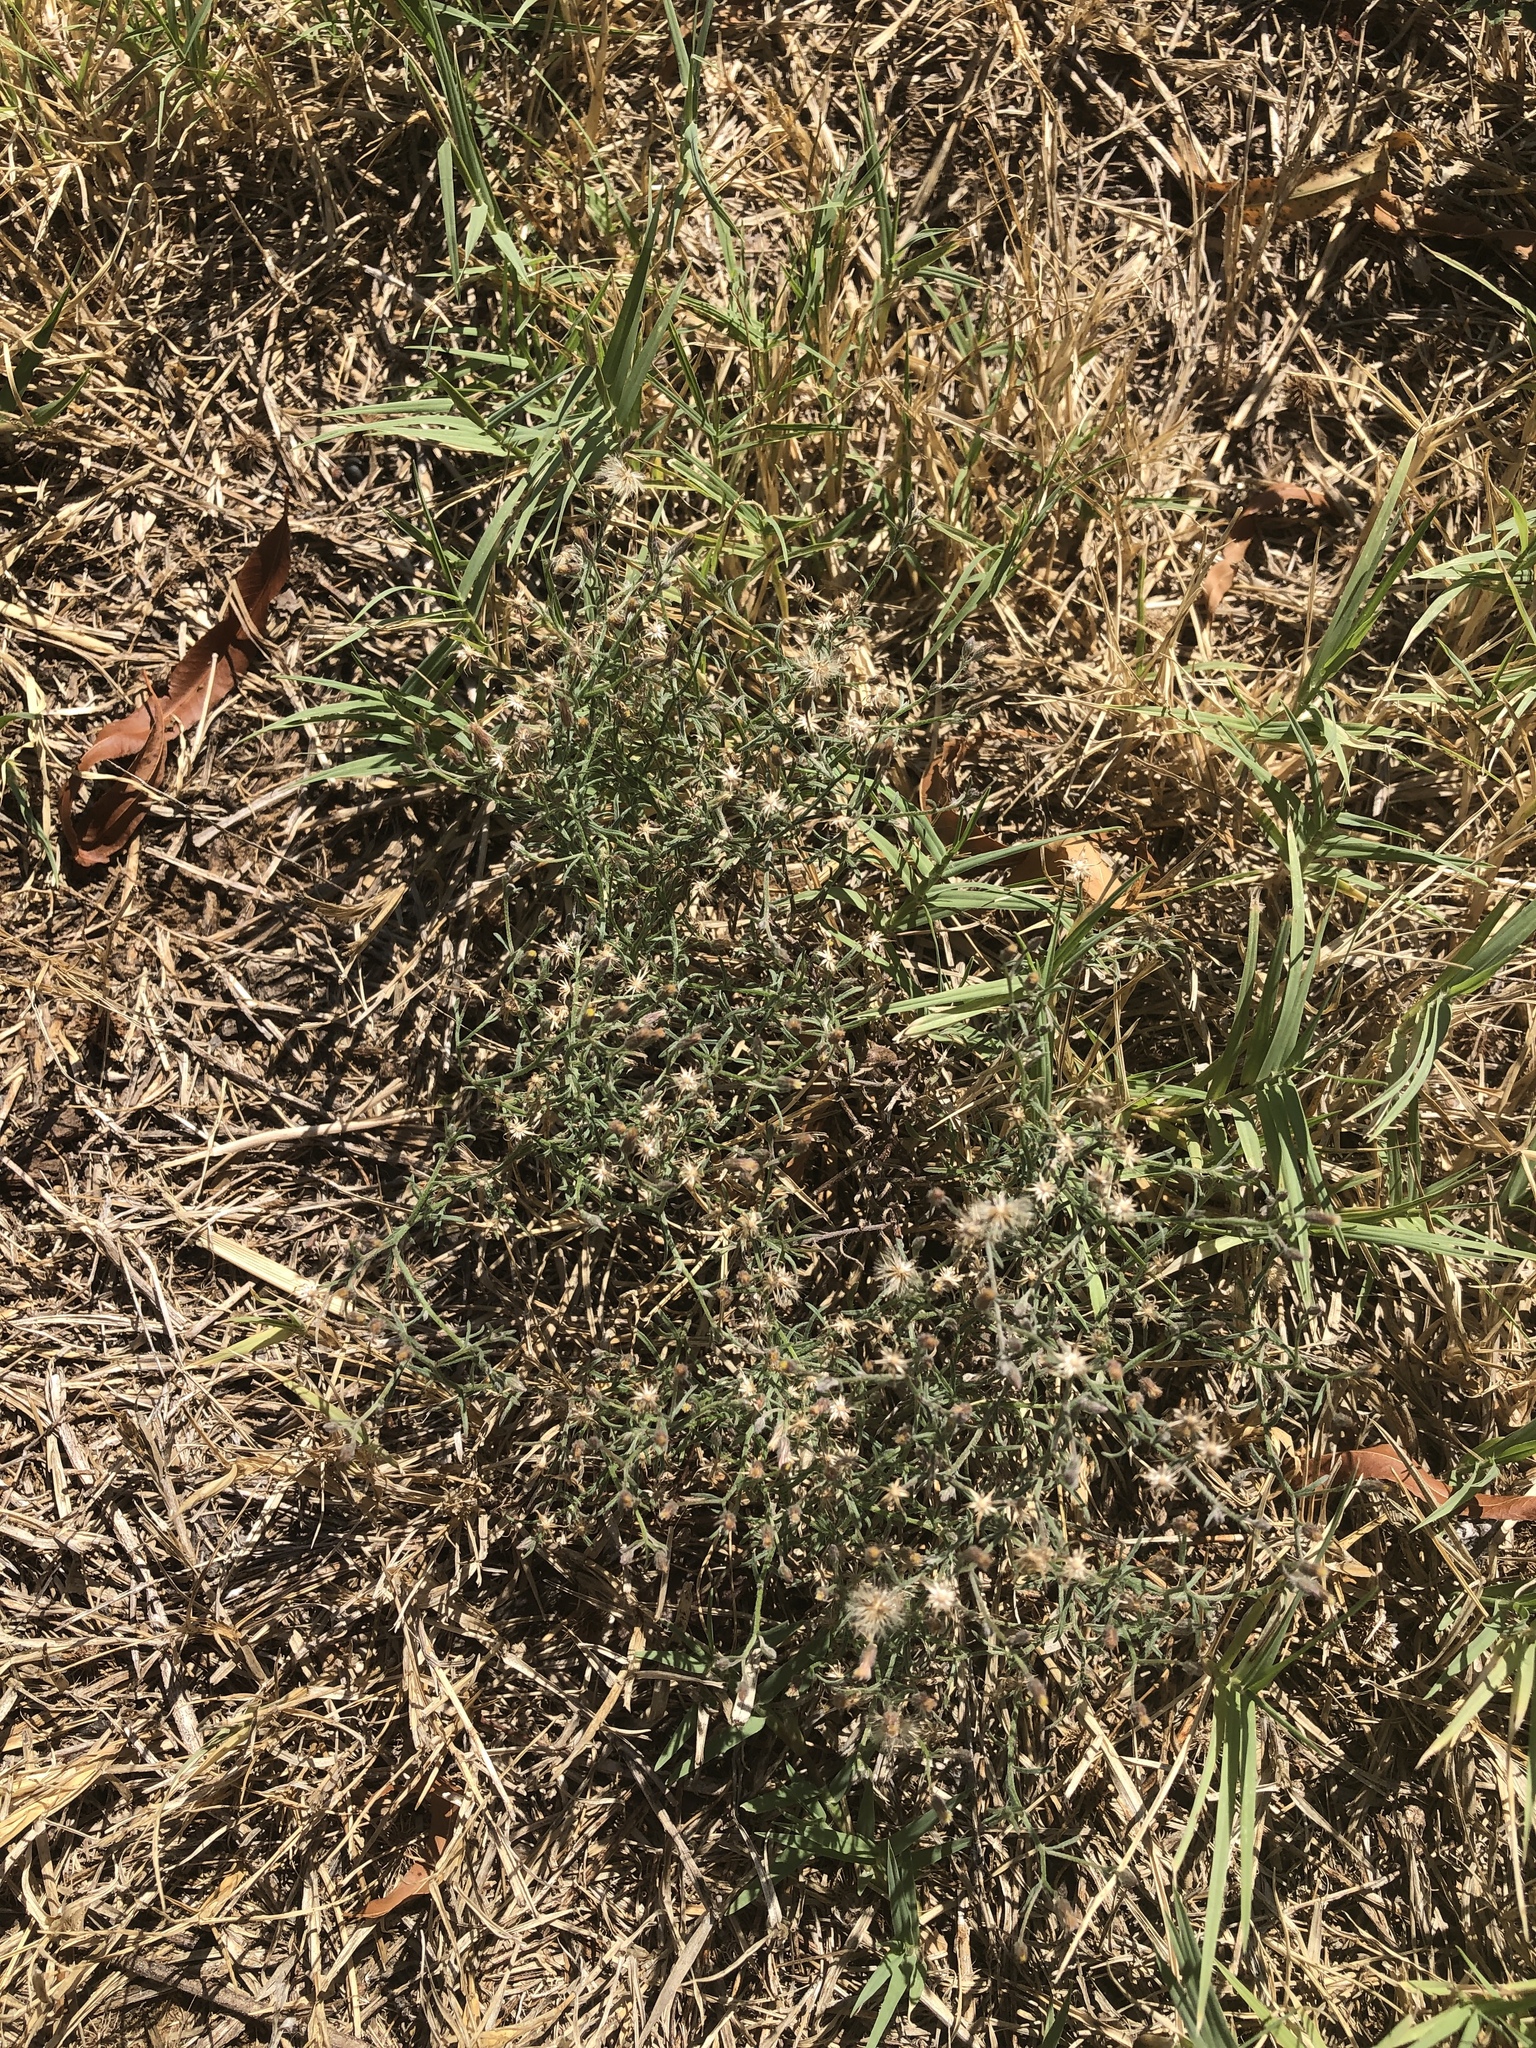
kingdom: Plantae
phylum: Tracheophyta
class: Magnoliopsida
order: Asterales
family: Asteraceae
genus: Erigeron
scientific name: Erigeron divaricatus
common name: Dwarf conyza
